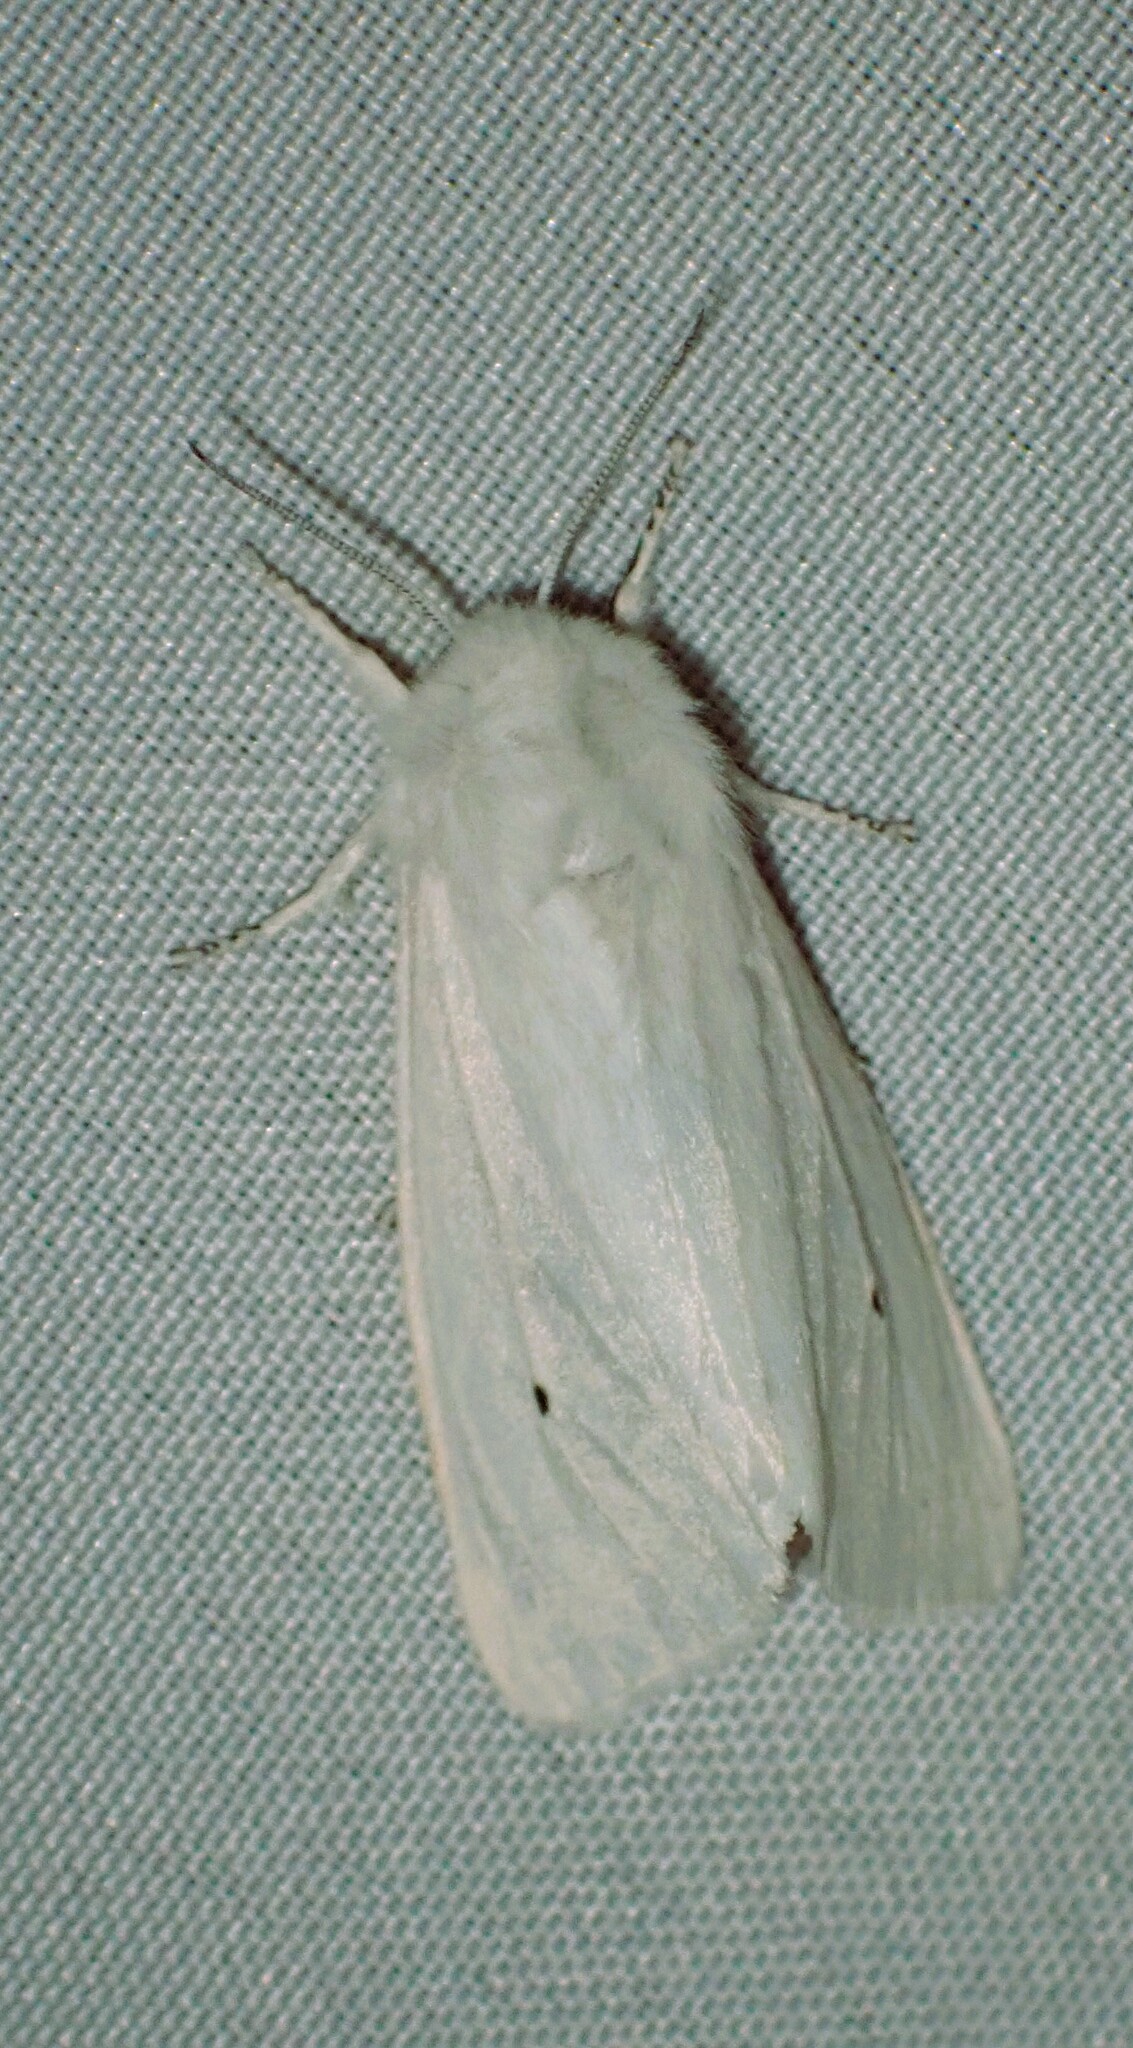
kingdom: Animalia
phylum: Arthropoda
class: Insecta
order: Lepidoptera
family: Erebidae
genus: Spilosoma
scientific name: Spilosoma virginica
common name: Virginia tiger moth
